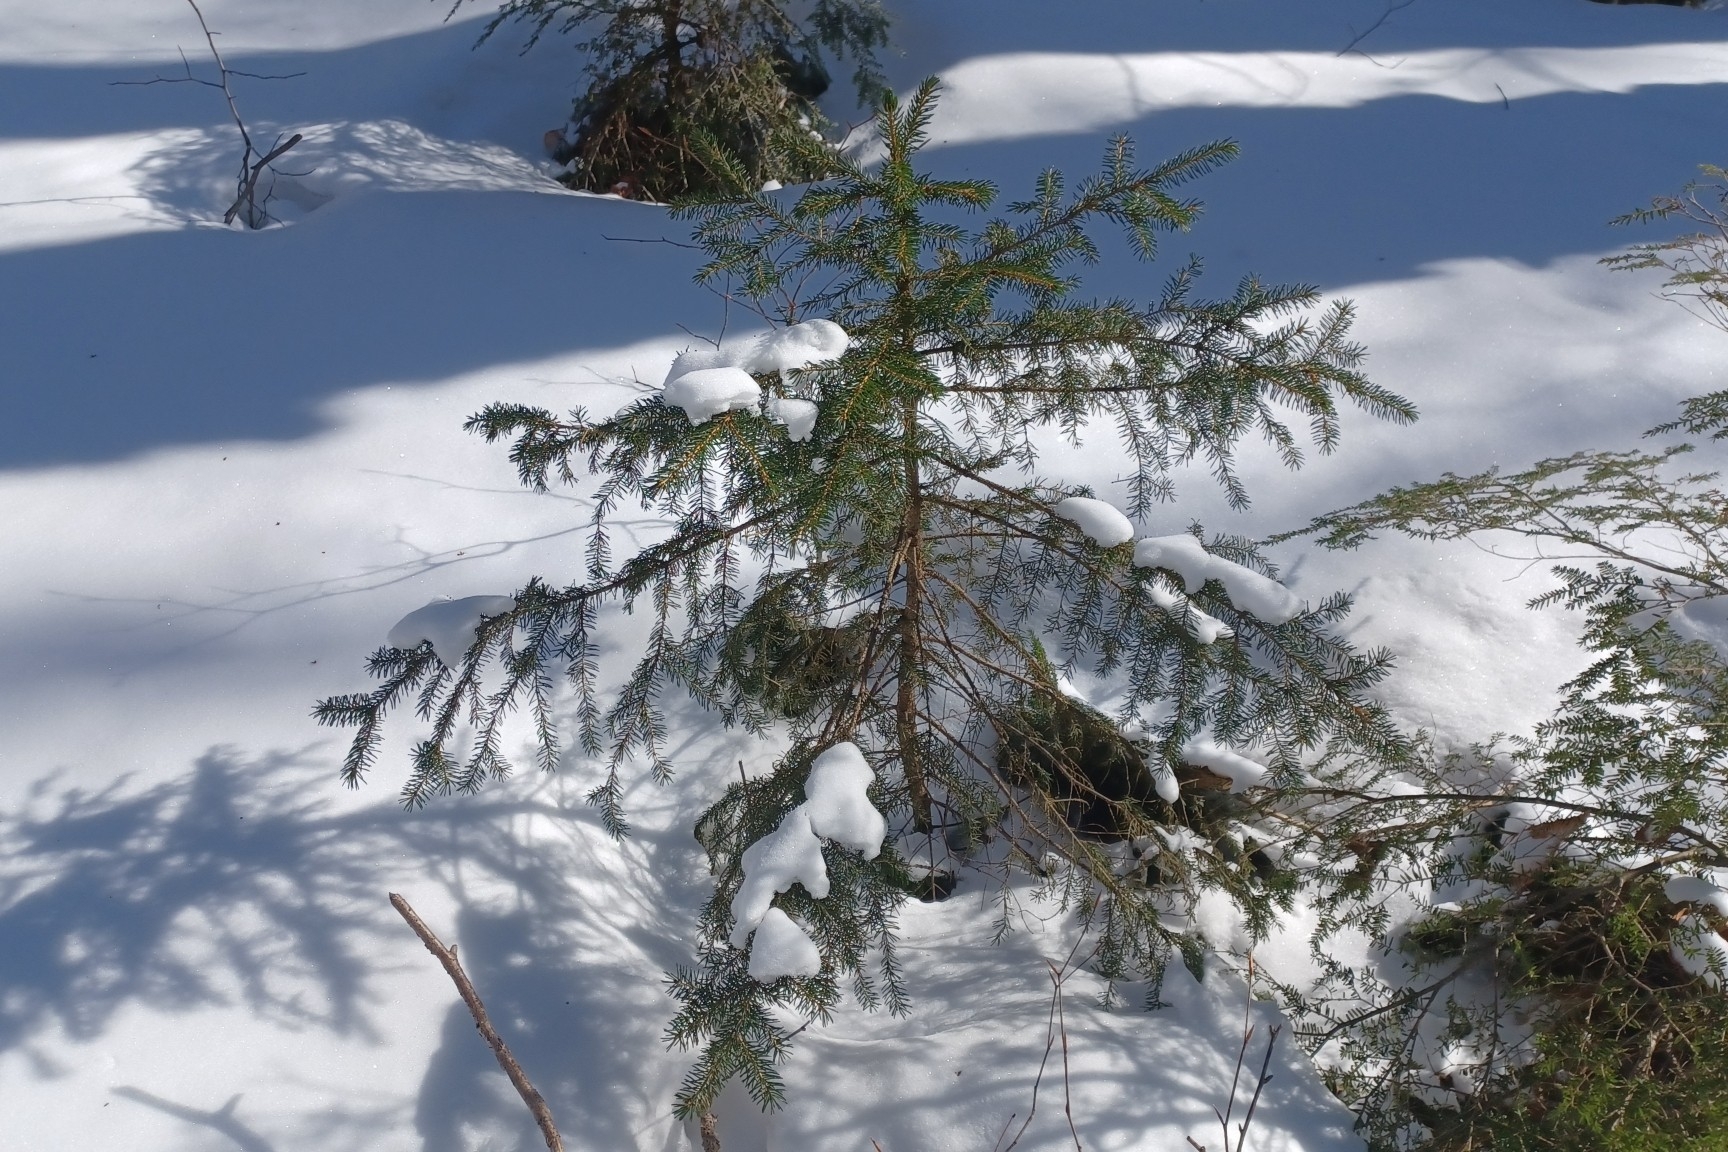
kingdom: Plantae
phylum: Tracheophyta
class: Pinopsida
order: Pinales
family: Pinaceae
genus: Picea
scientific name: Picea rubens
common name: Red spruce
